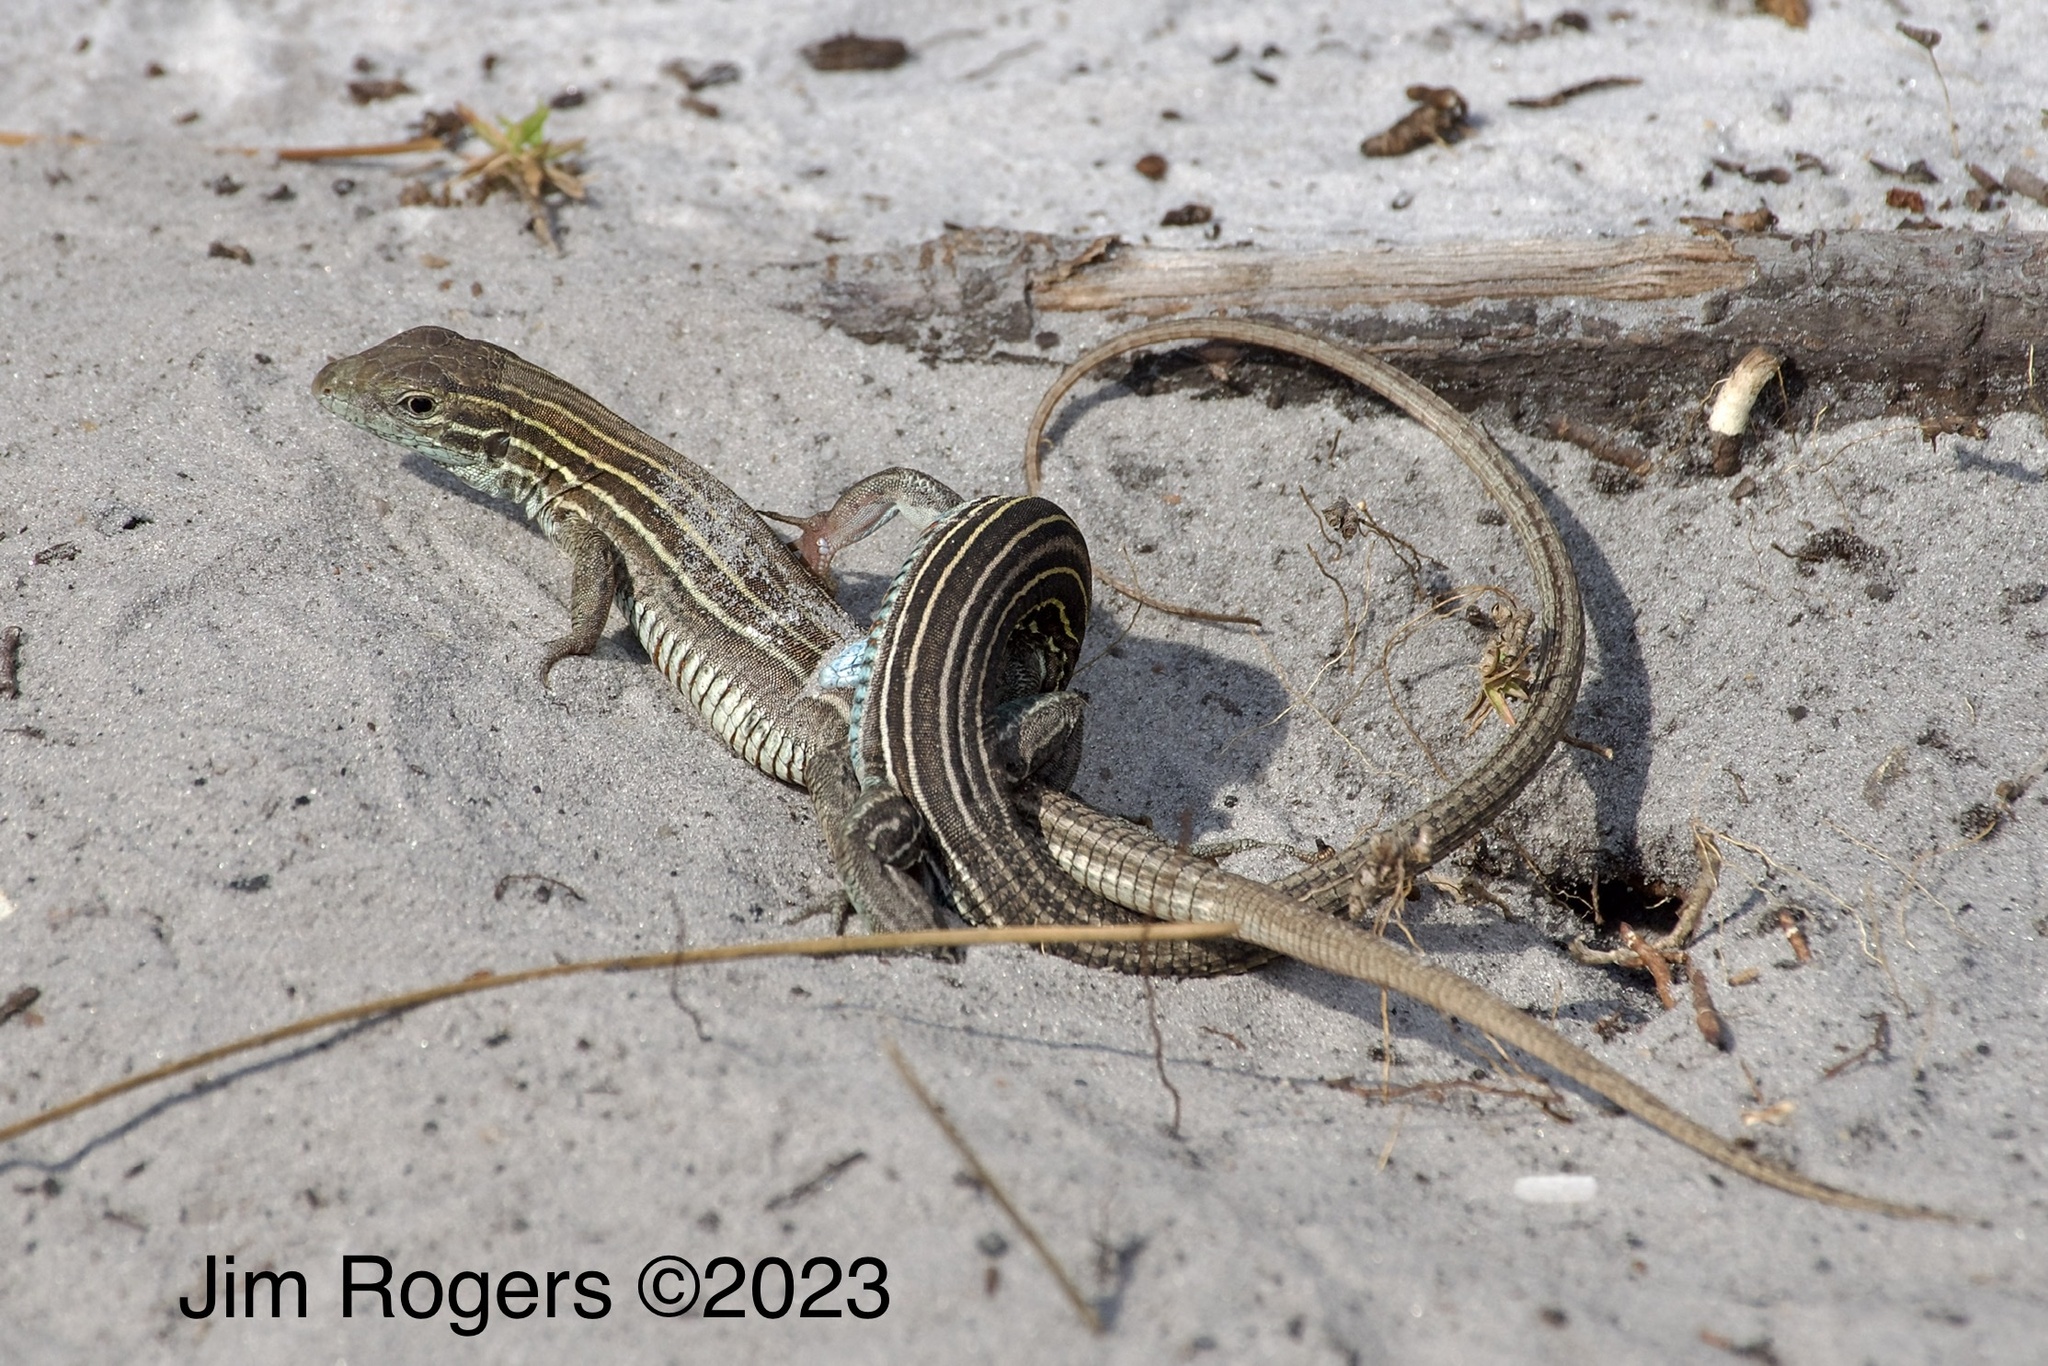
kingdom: Animalia
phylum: Chordata
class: Squamata
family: Teiidae
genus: Aspidoscelis
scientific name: Aspidoscelis sexlineatus
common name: Six-lined racerunner
